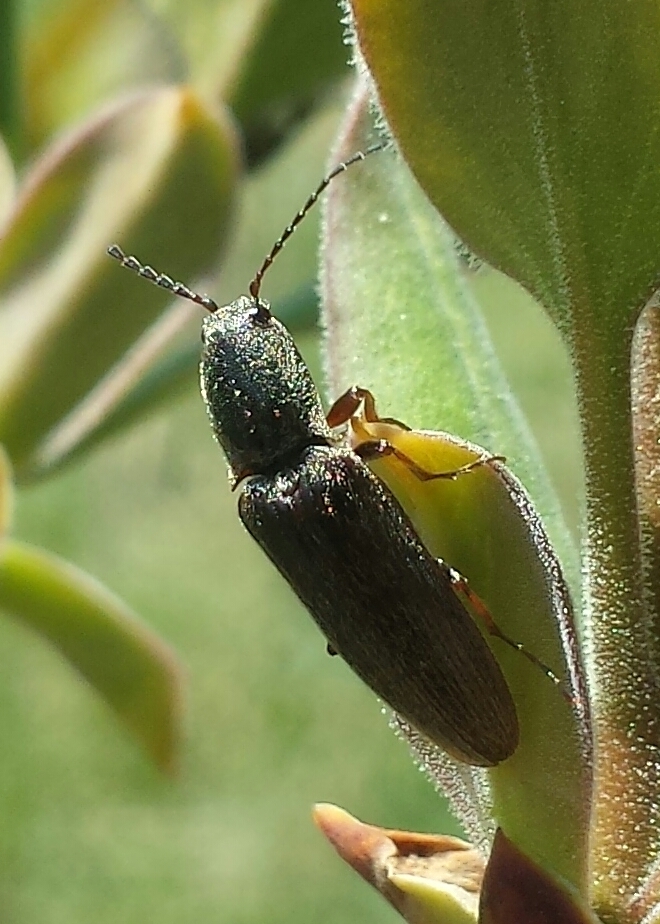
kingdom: Animalia
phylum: Arthropoda
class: Insecta
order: Coleoptera
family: Elateridae
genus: Sylvanelater
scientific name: Sylvanelater cylindriformis
